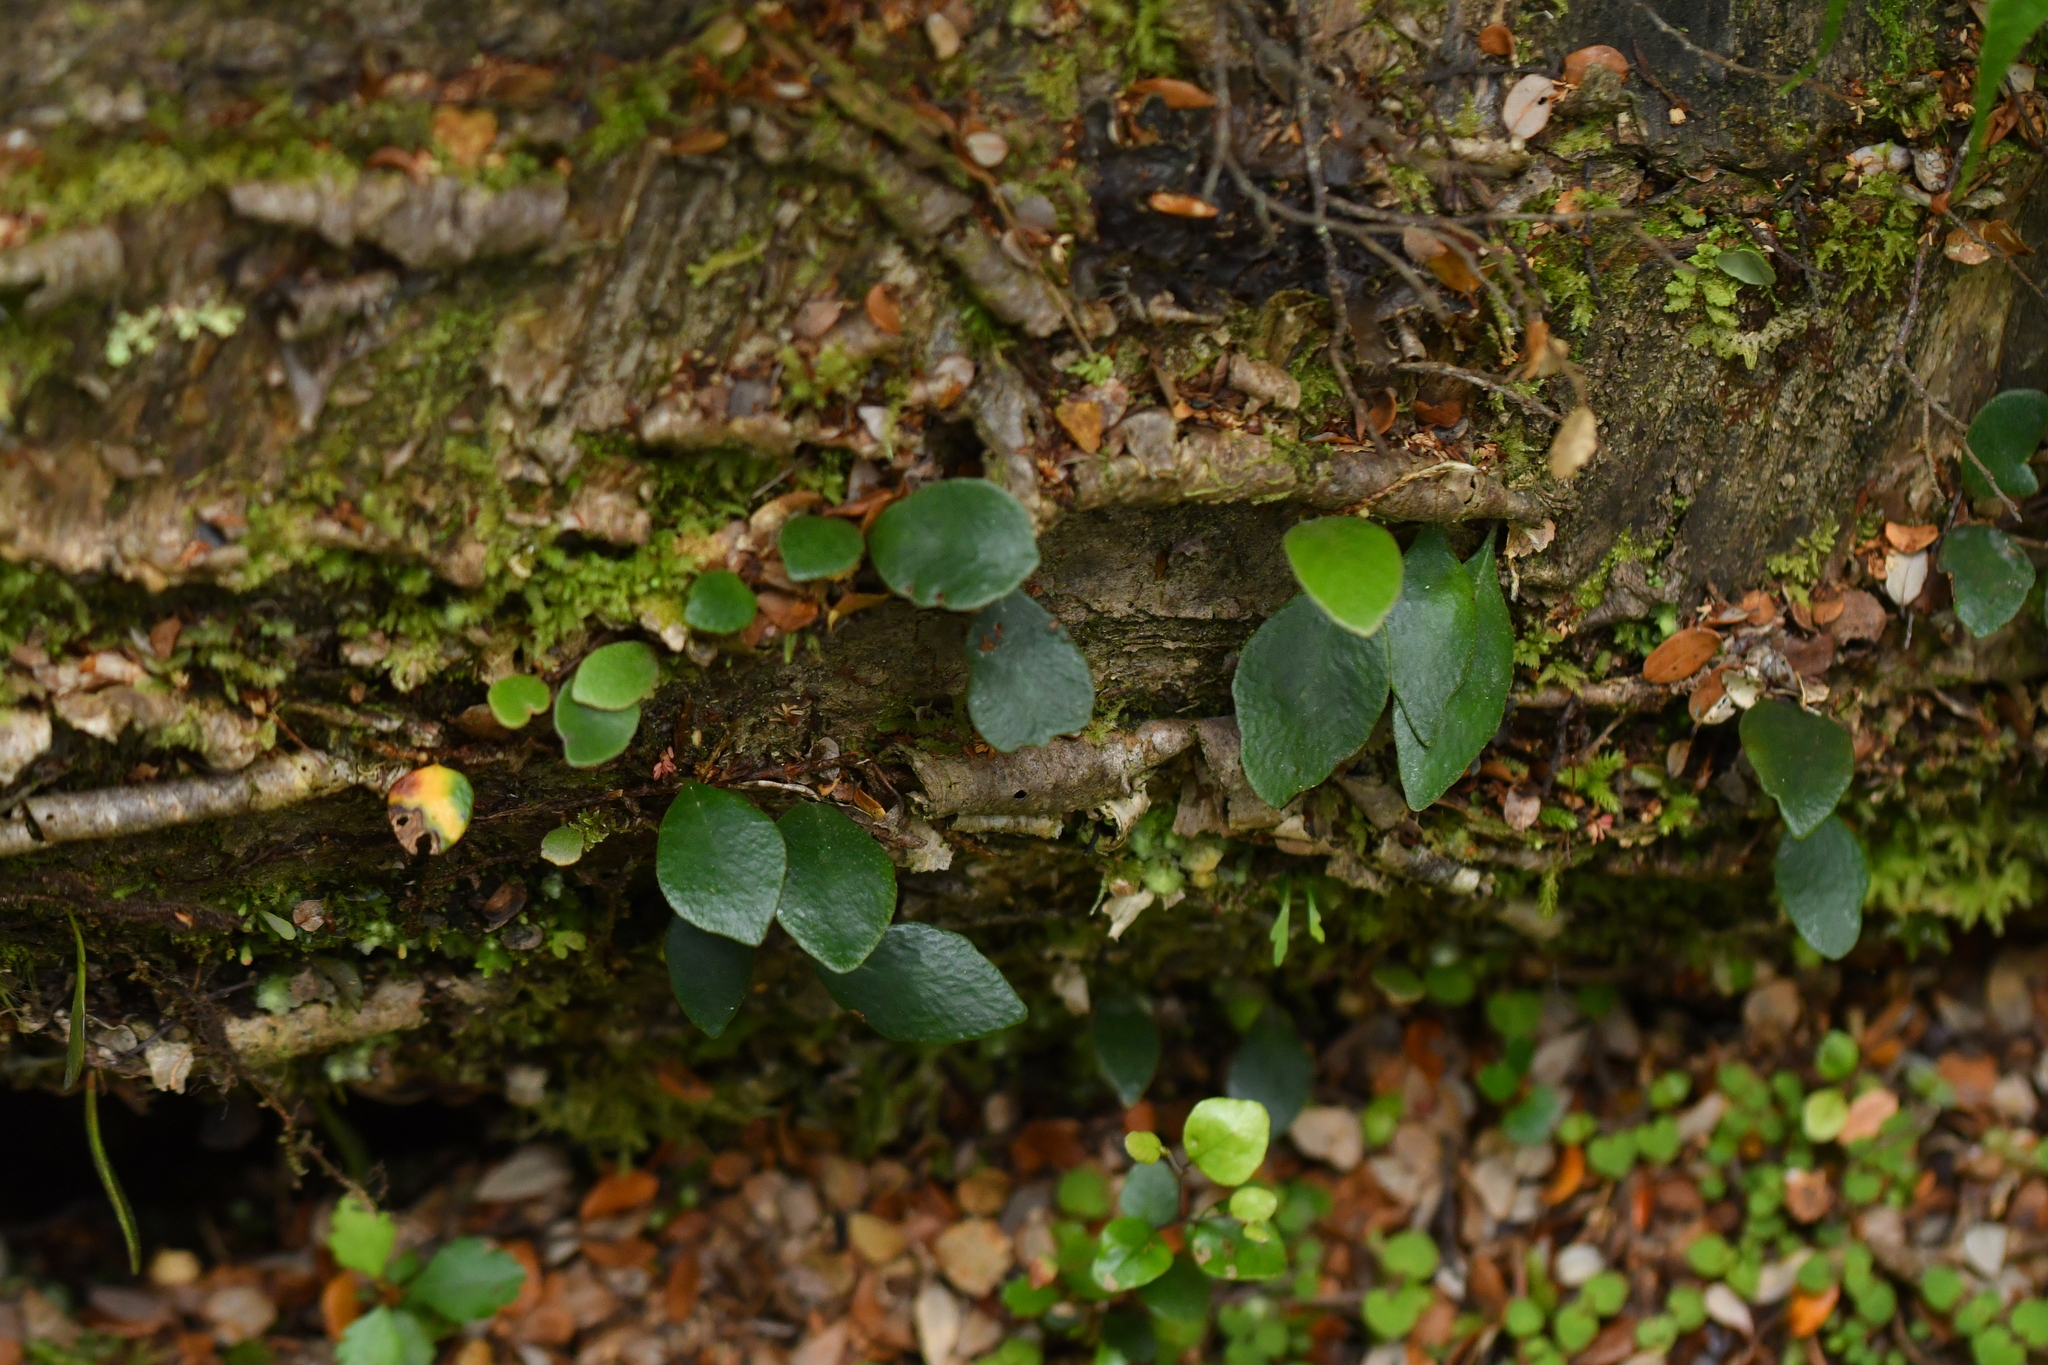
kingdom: Plantae
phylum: Tracheophyta
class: Polypodiopsida
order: Polypodiales
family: Polypodiaceae
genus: Pyrrosia
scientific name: Pyrrosia eleagnifolia
